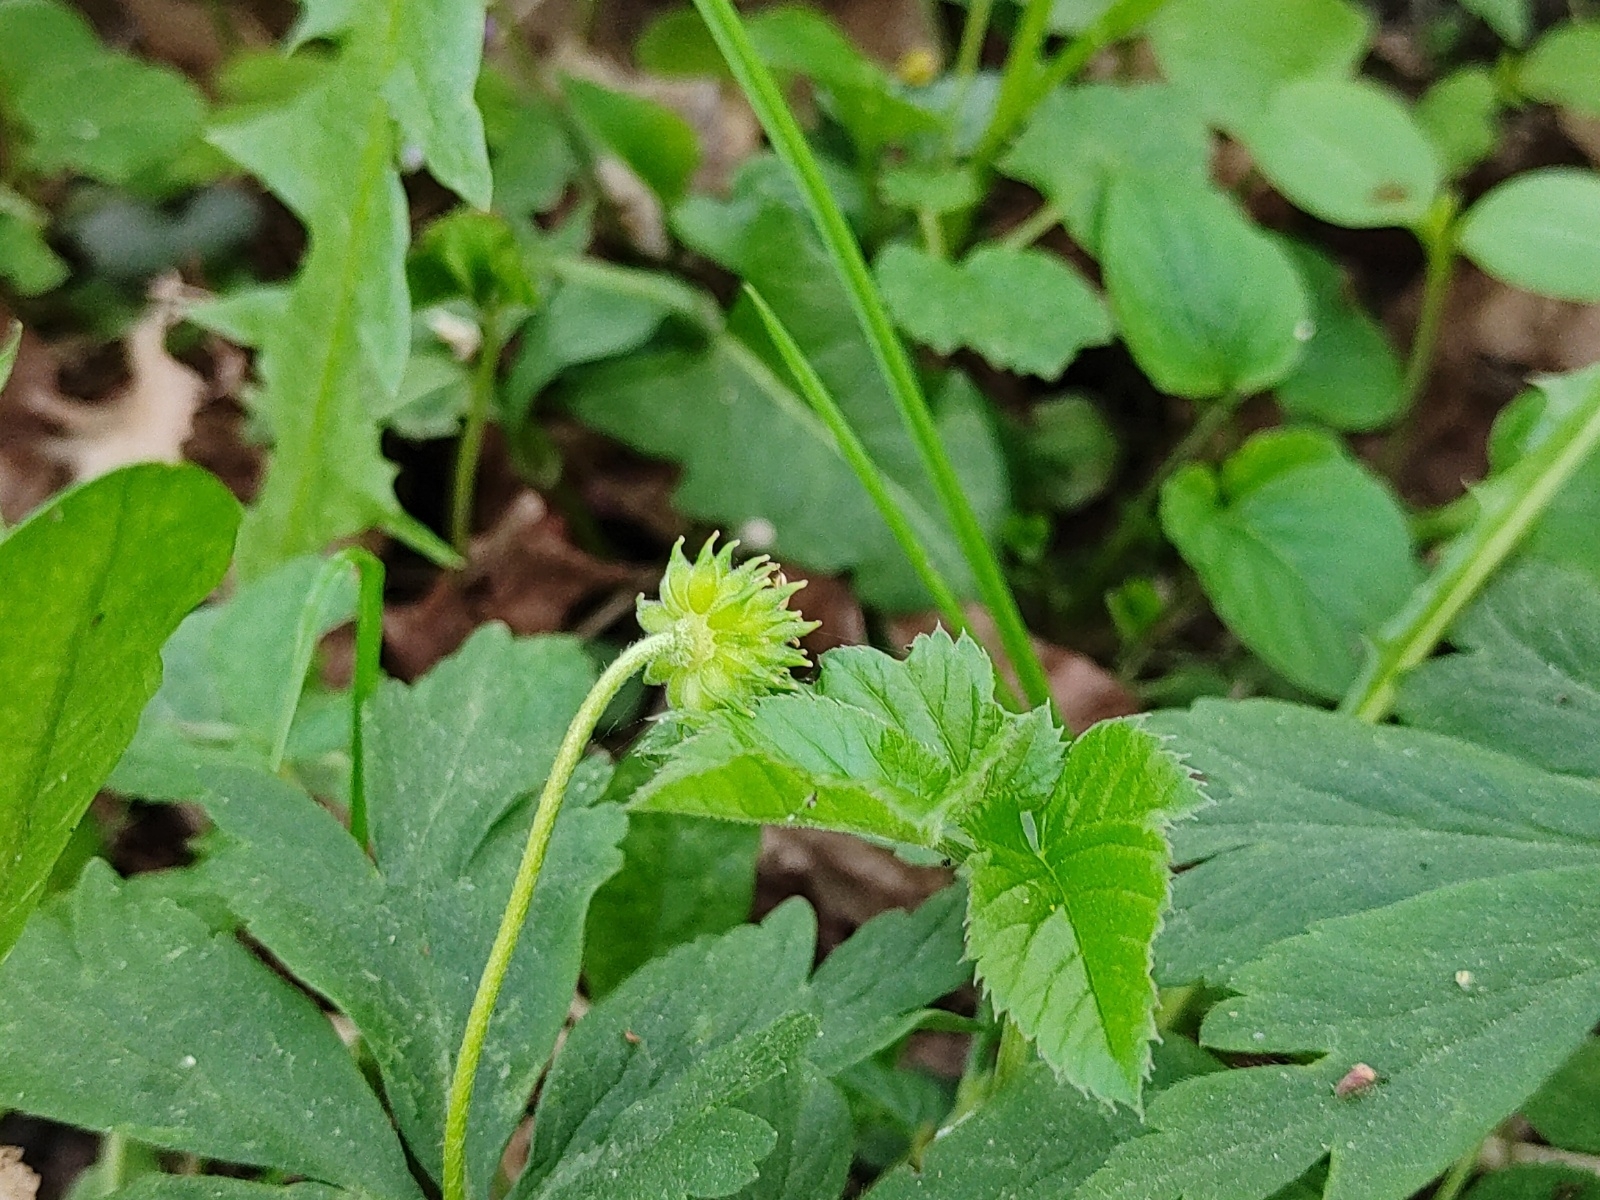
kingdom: Plantae
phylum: Tracheophyta
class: Magnoliopsida
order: Ranunculales
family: Ranunculaceae
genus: Anemone
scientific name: Anemone nemorosa
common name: Wood anemone
